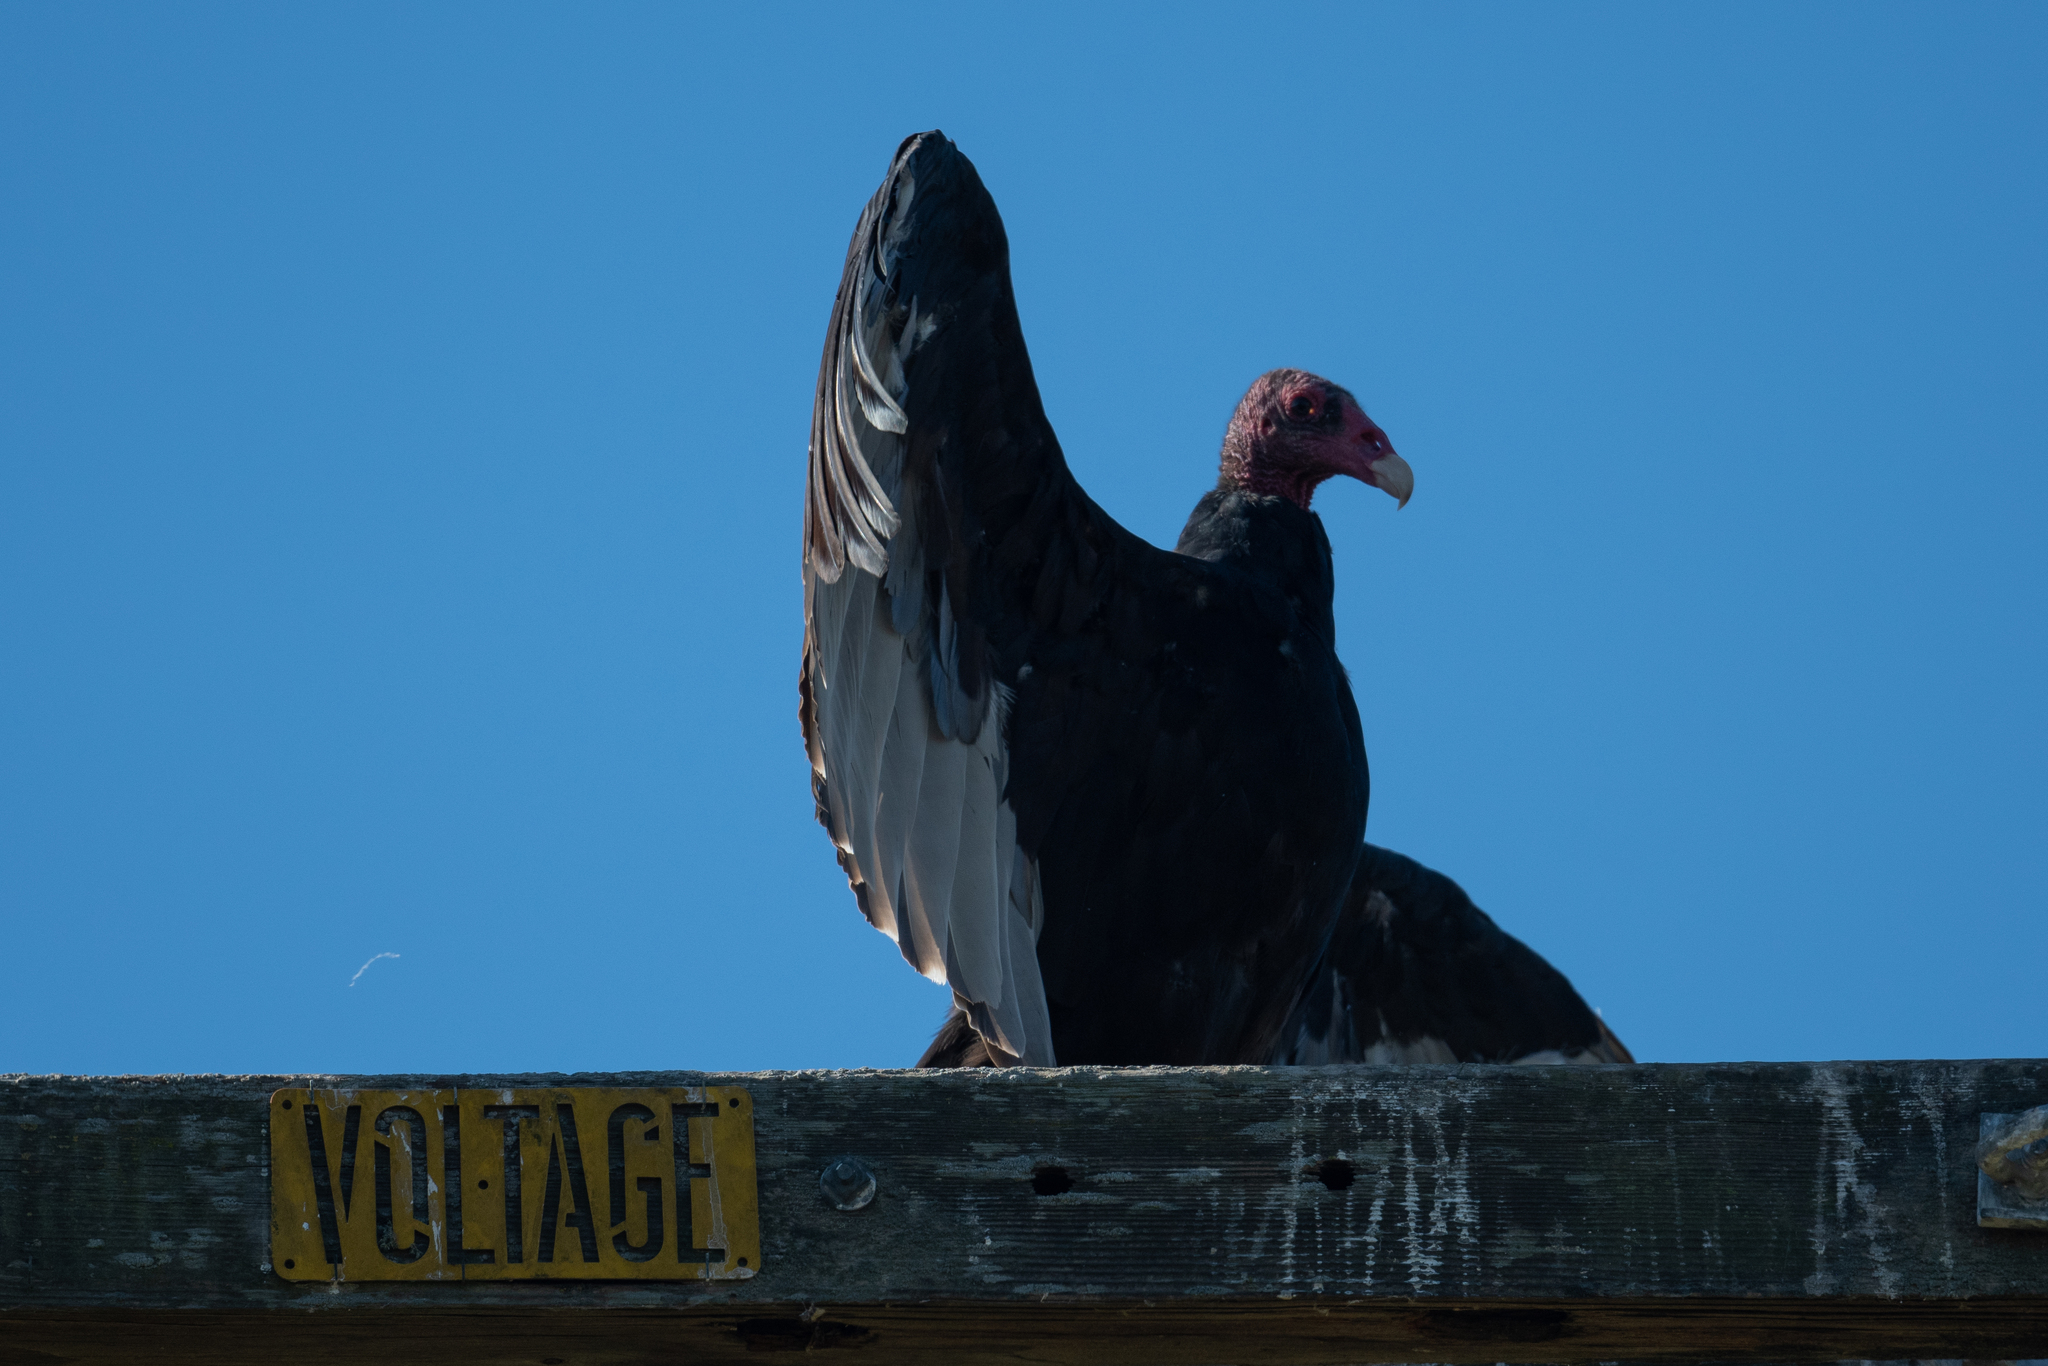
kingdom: Animalia
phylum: Chordata
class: Aves
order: Accipitriformes
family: Cathartidae
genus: Cathartes
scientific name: Cathartes aura
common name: Turkey vulture
